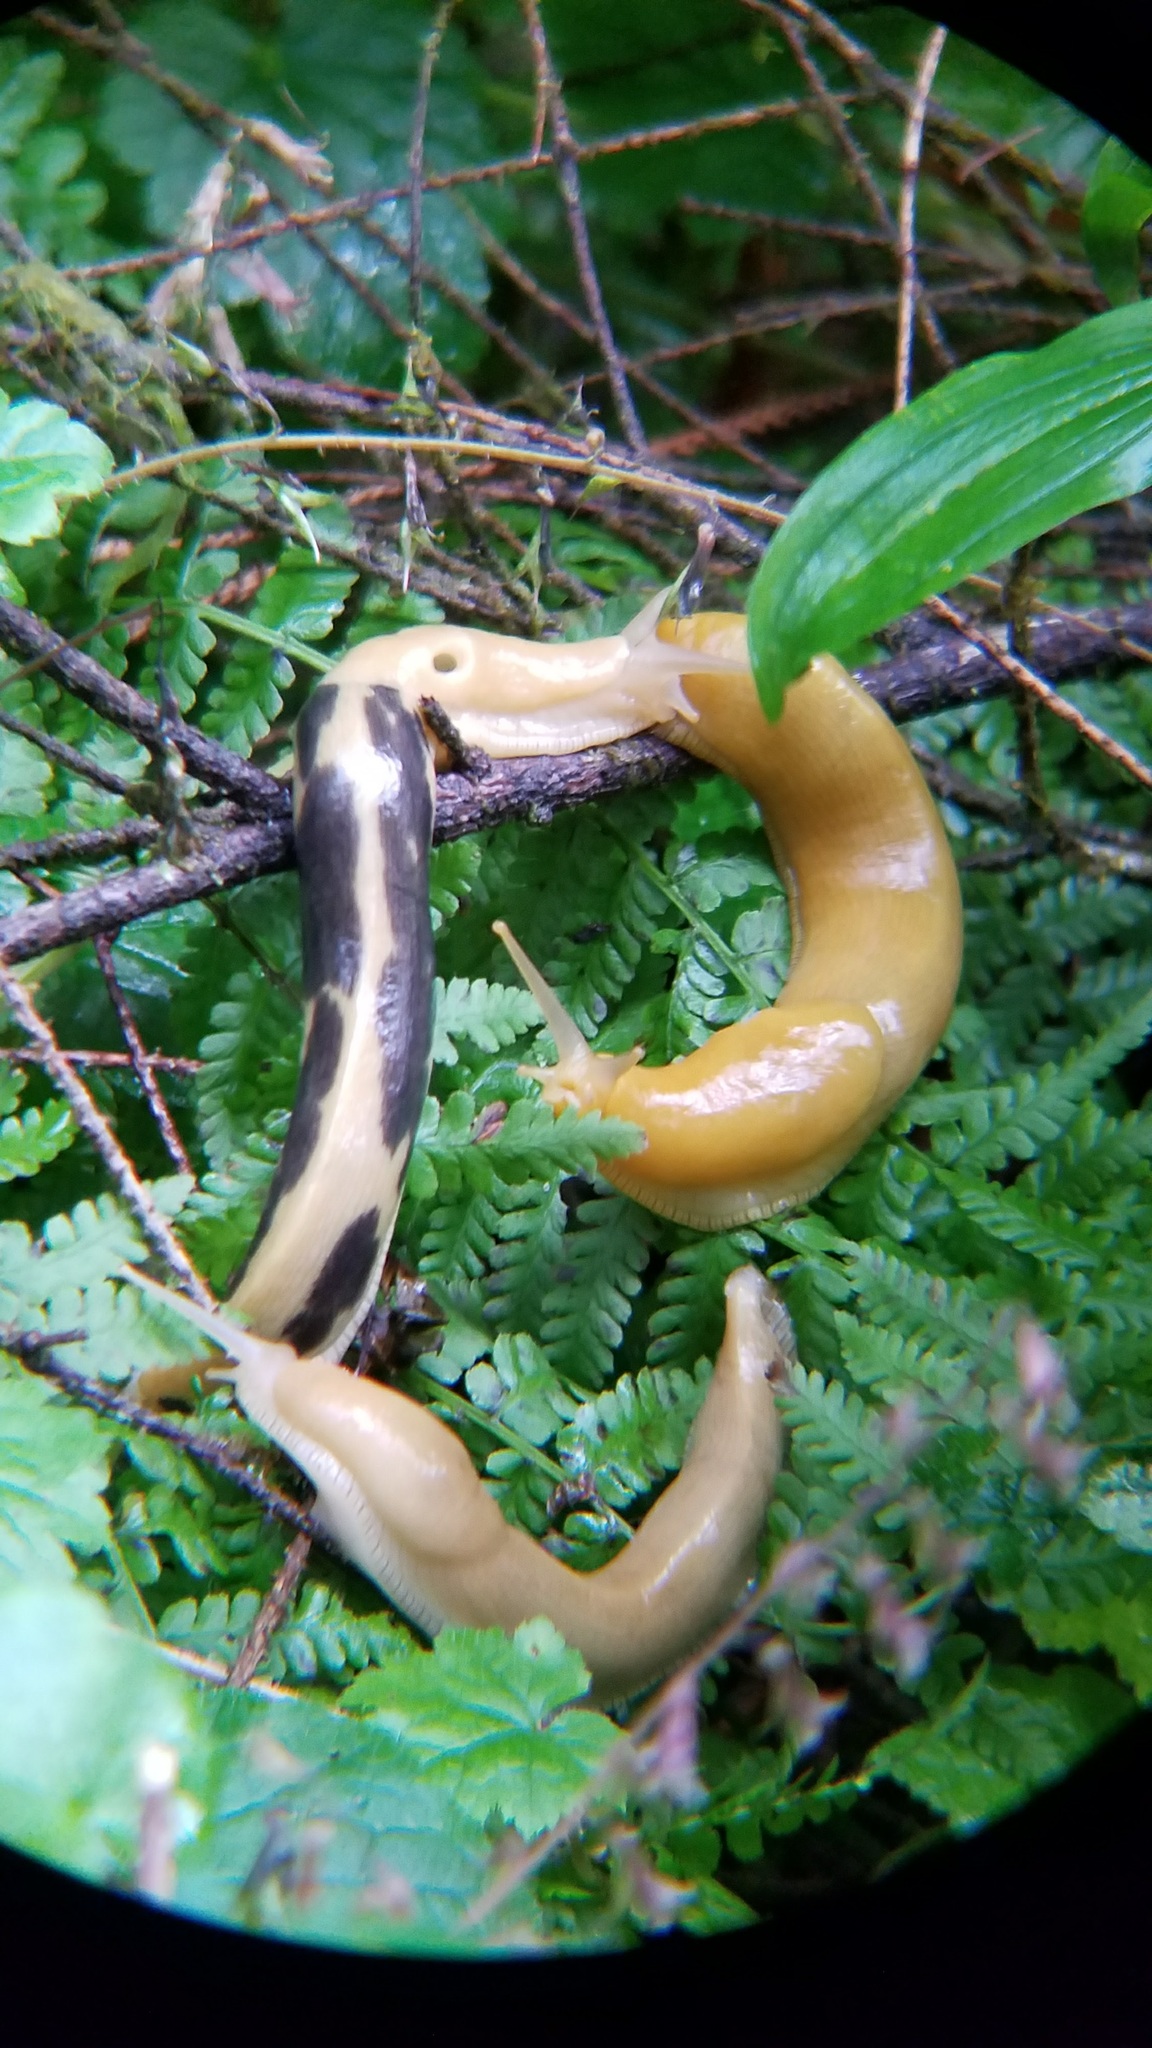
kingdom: Animalia
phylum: Mollusca
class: Gastropoda
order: Stylommatophora
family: Ariolimacidae
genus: Ariolimax
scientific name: Ariolimax columbianus
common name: Pacific banana slug
